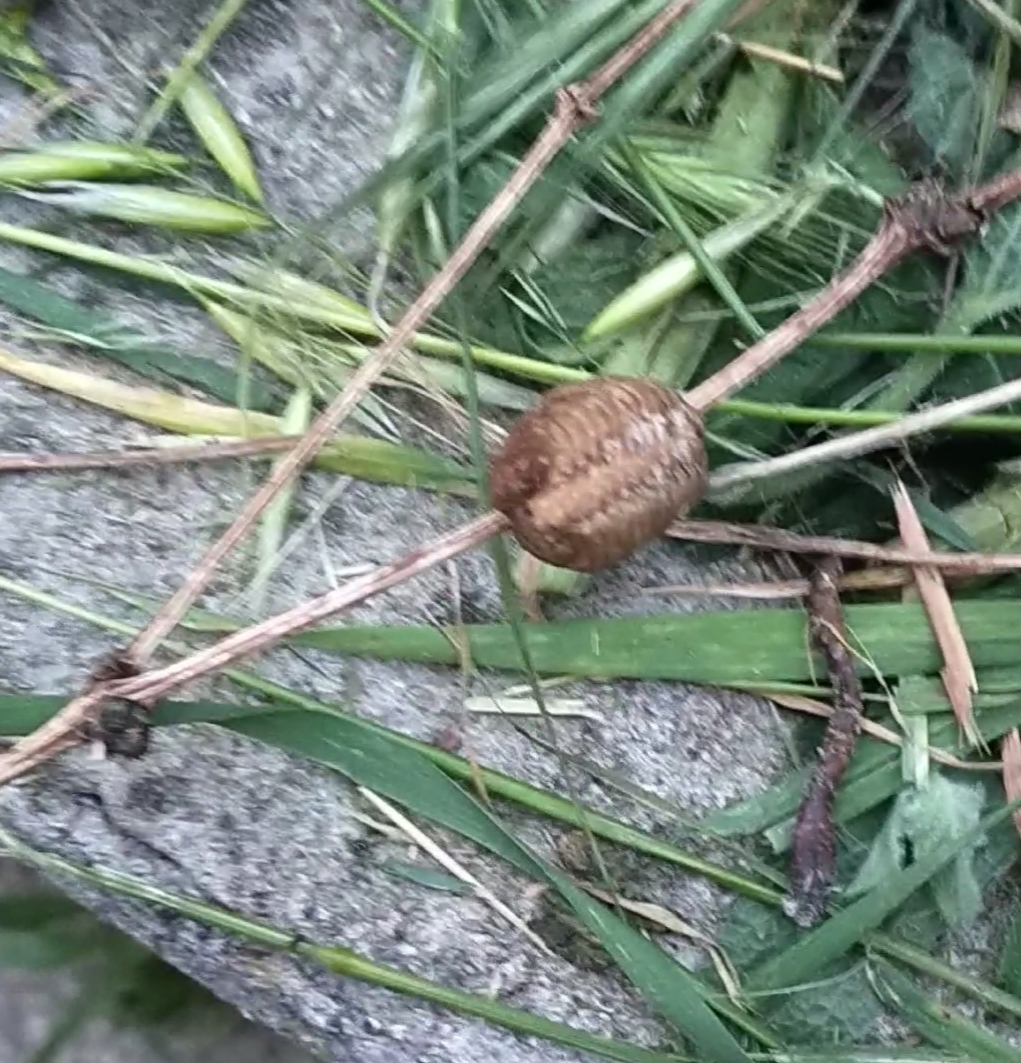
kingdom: Animalia
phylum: Arthropoda
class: Insecta
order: Mantodea
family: Mantidae
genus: Hierodula
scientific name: Hierodula transcaucasica
